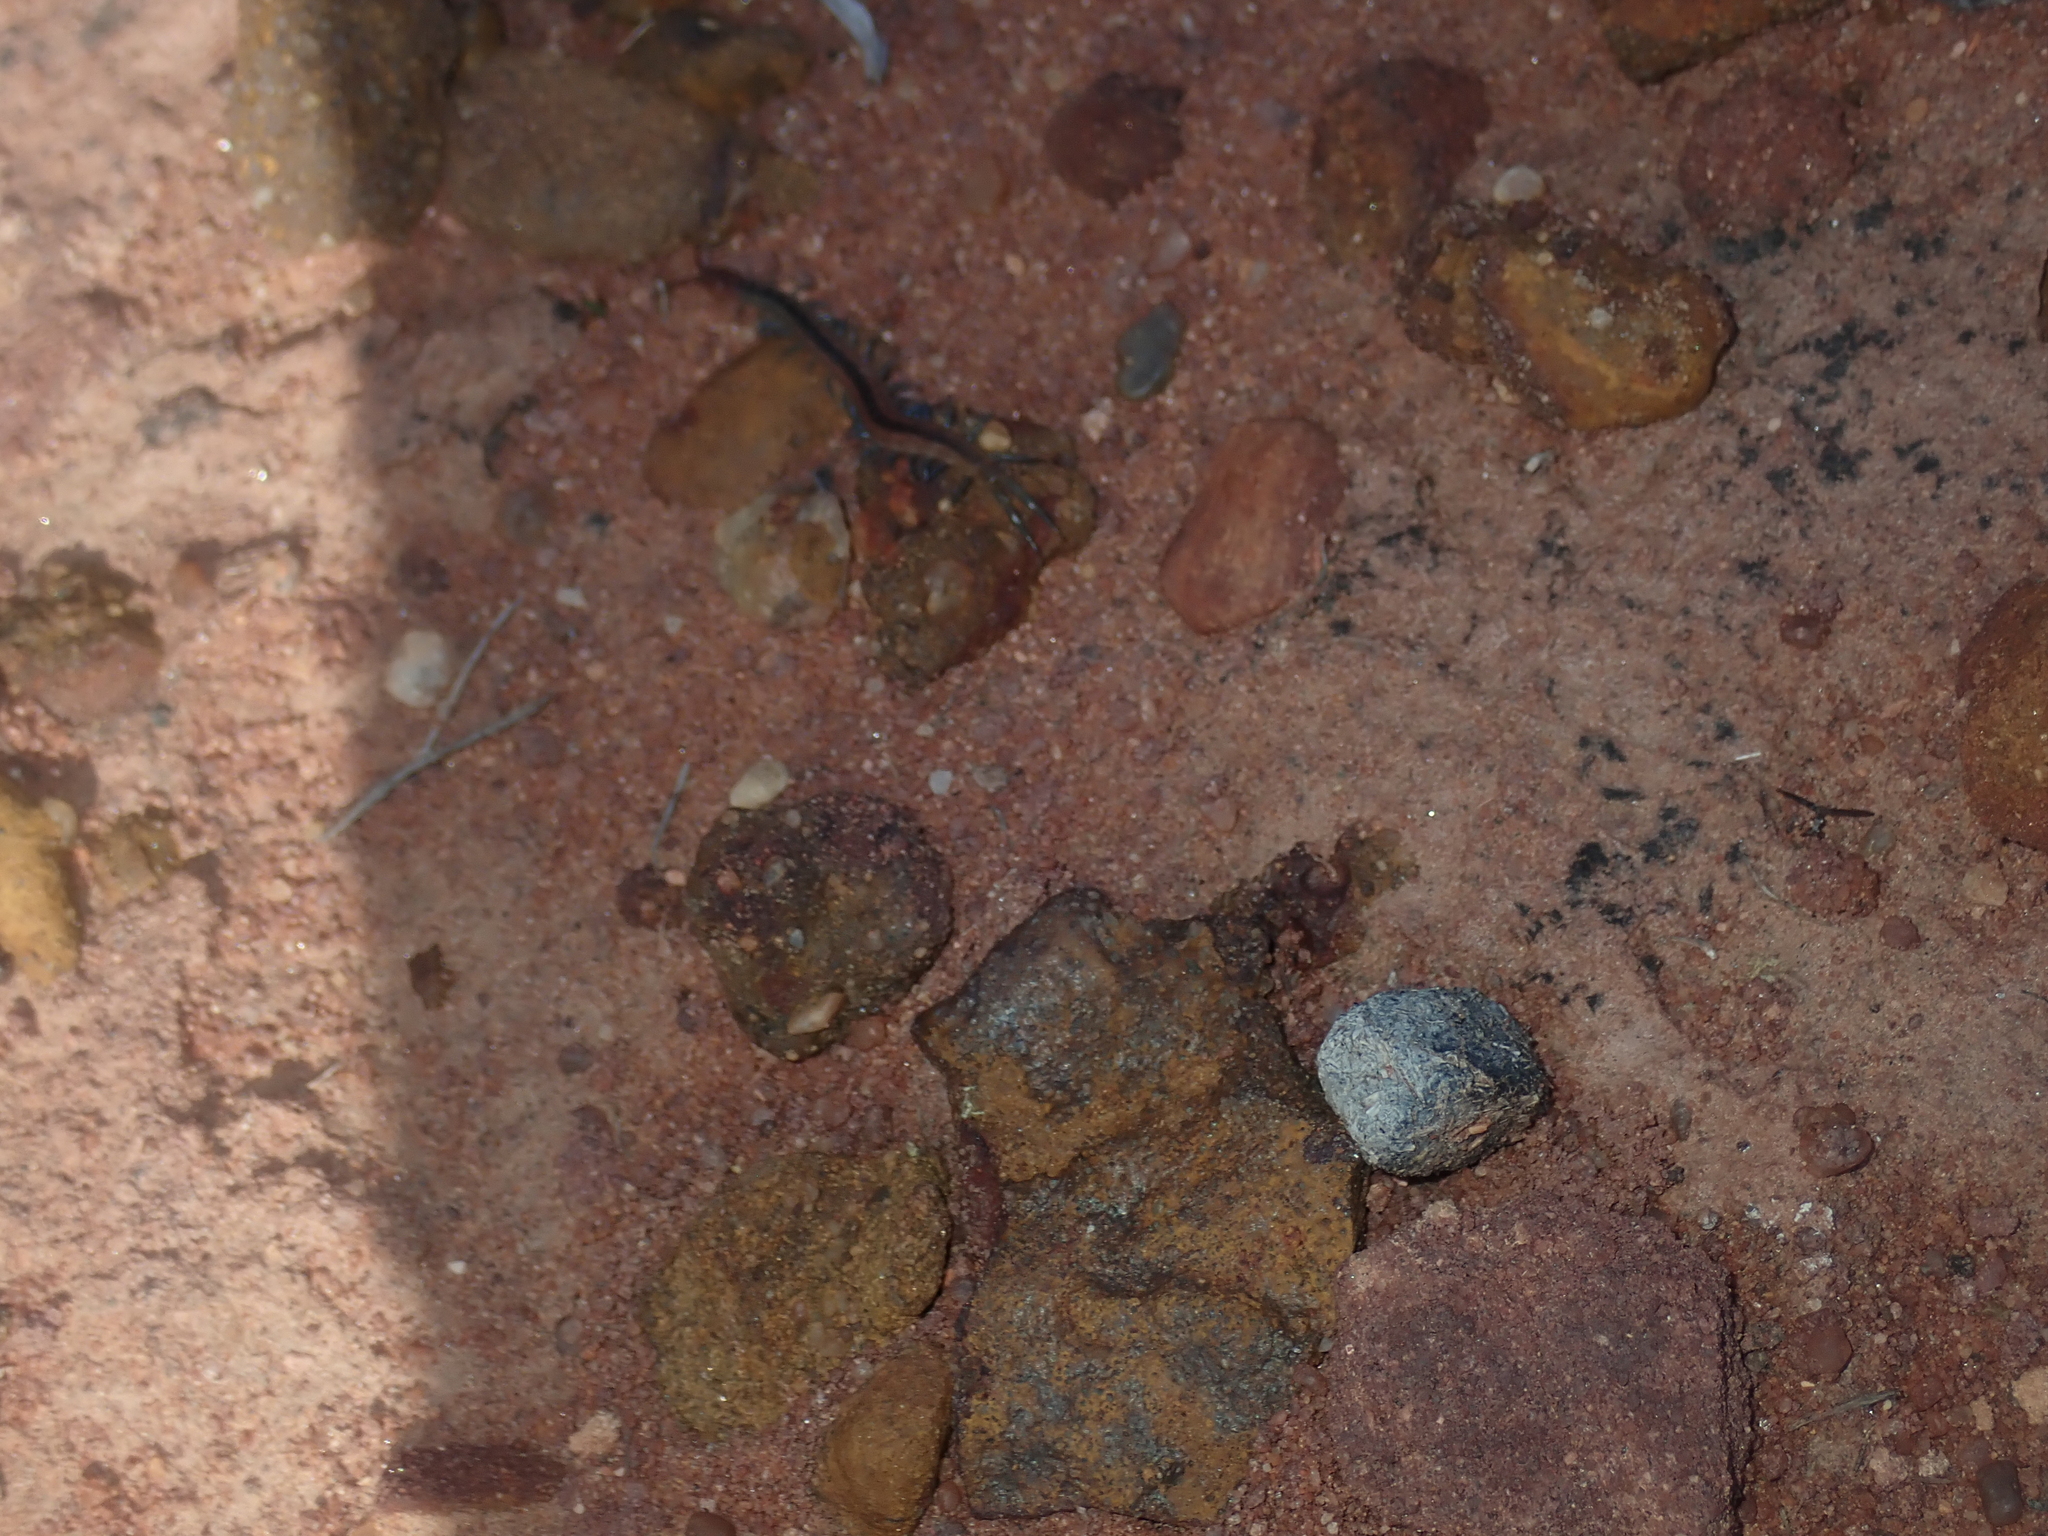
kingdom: Animalia
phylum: Arthropoda
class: Chilopoda
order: Scolopendromorpha
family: Scolopendridae
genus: Scolopendra
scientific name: Scolopendra laeta
